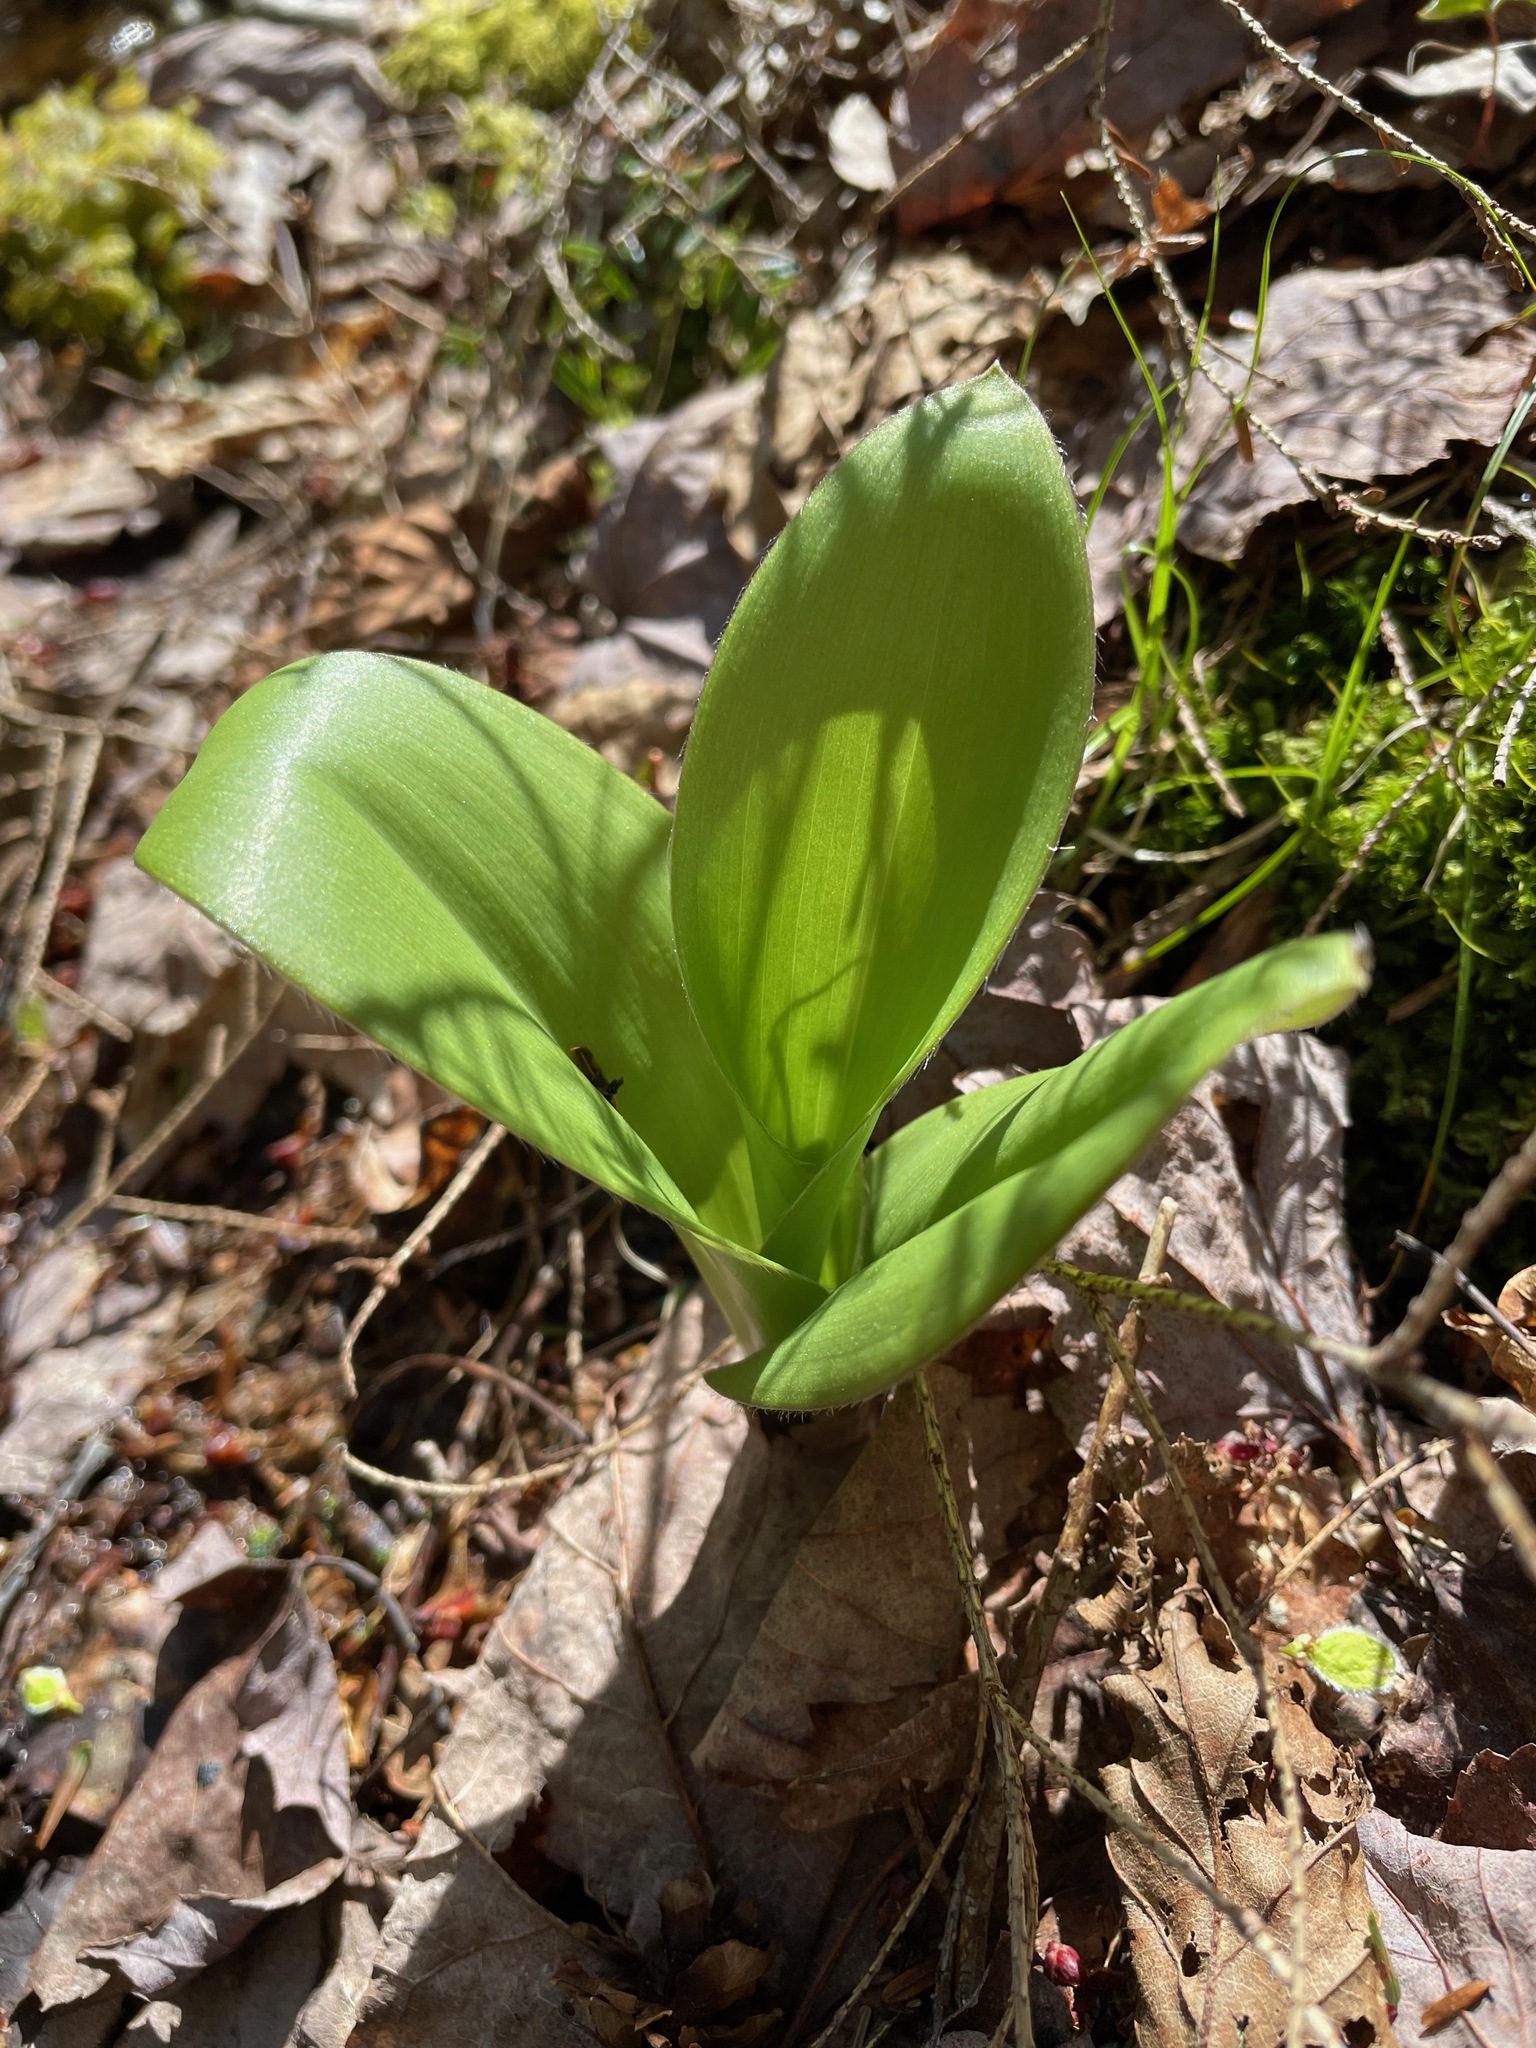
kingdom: Plantae
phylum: Tracheophyta
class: Liliopsida
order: Liliales
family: Liliaceae
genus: Clintonia
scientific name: Clintonia borealis
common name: Yellow clintonia
